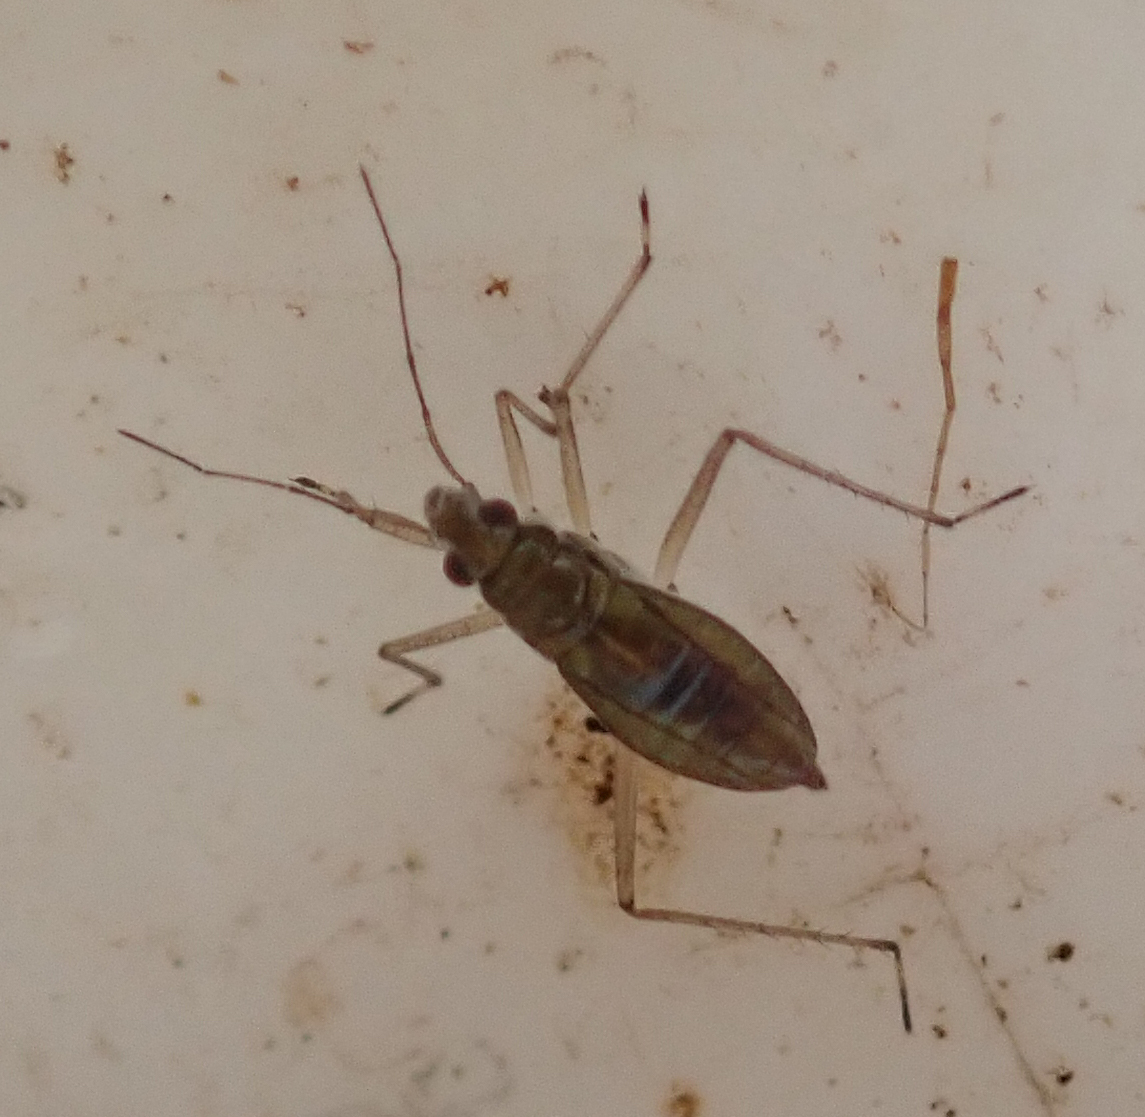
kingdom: Animalia
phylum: Arthropoda
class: Insecta
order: Hemiptera
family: Mesoveliidae
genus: Mesovelia
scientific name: Mesovelia vittigera
